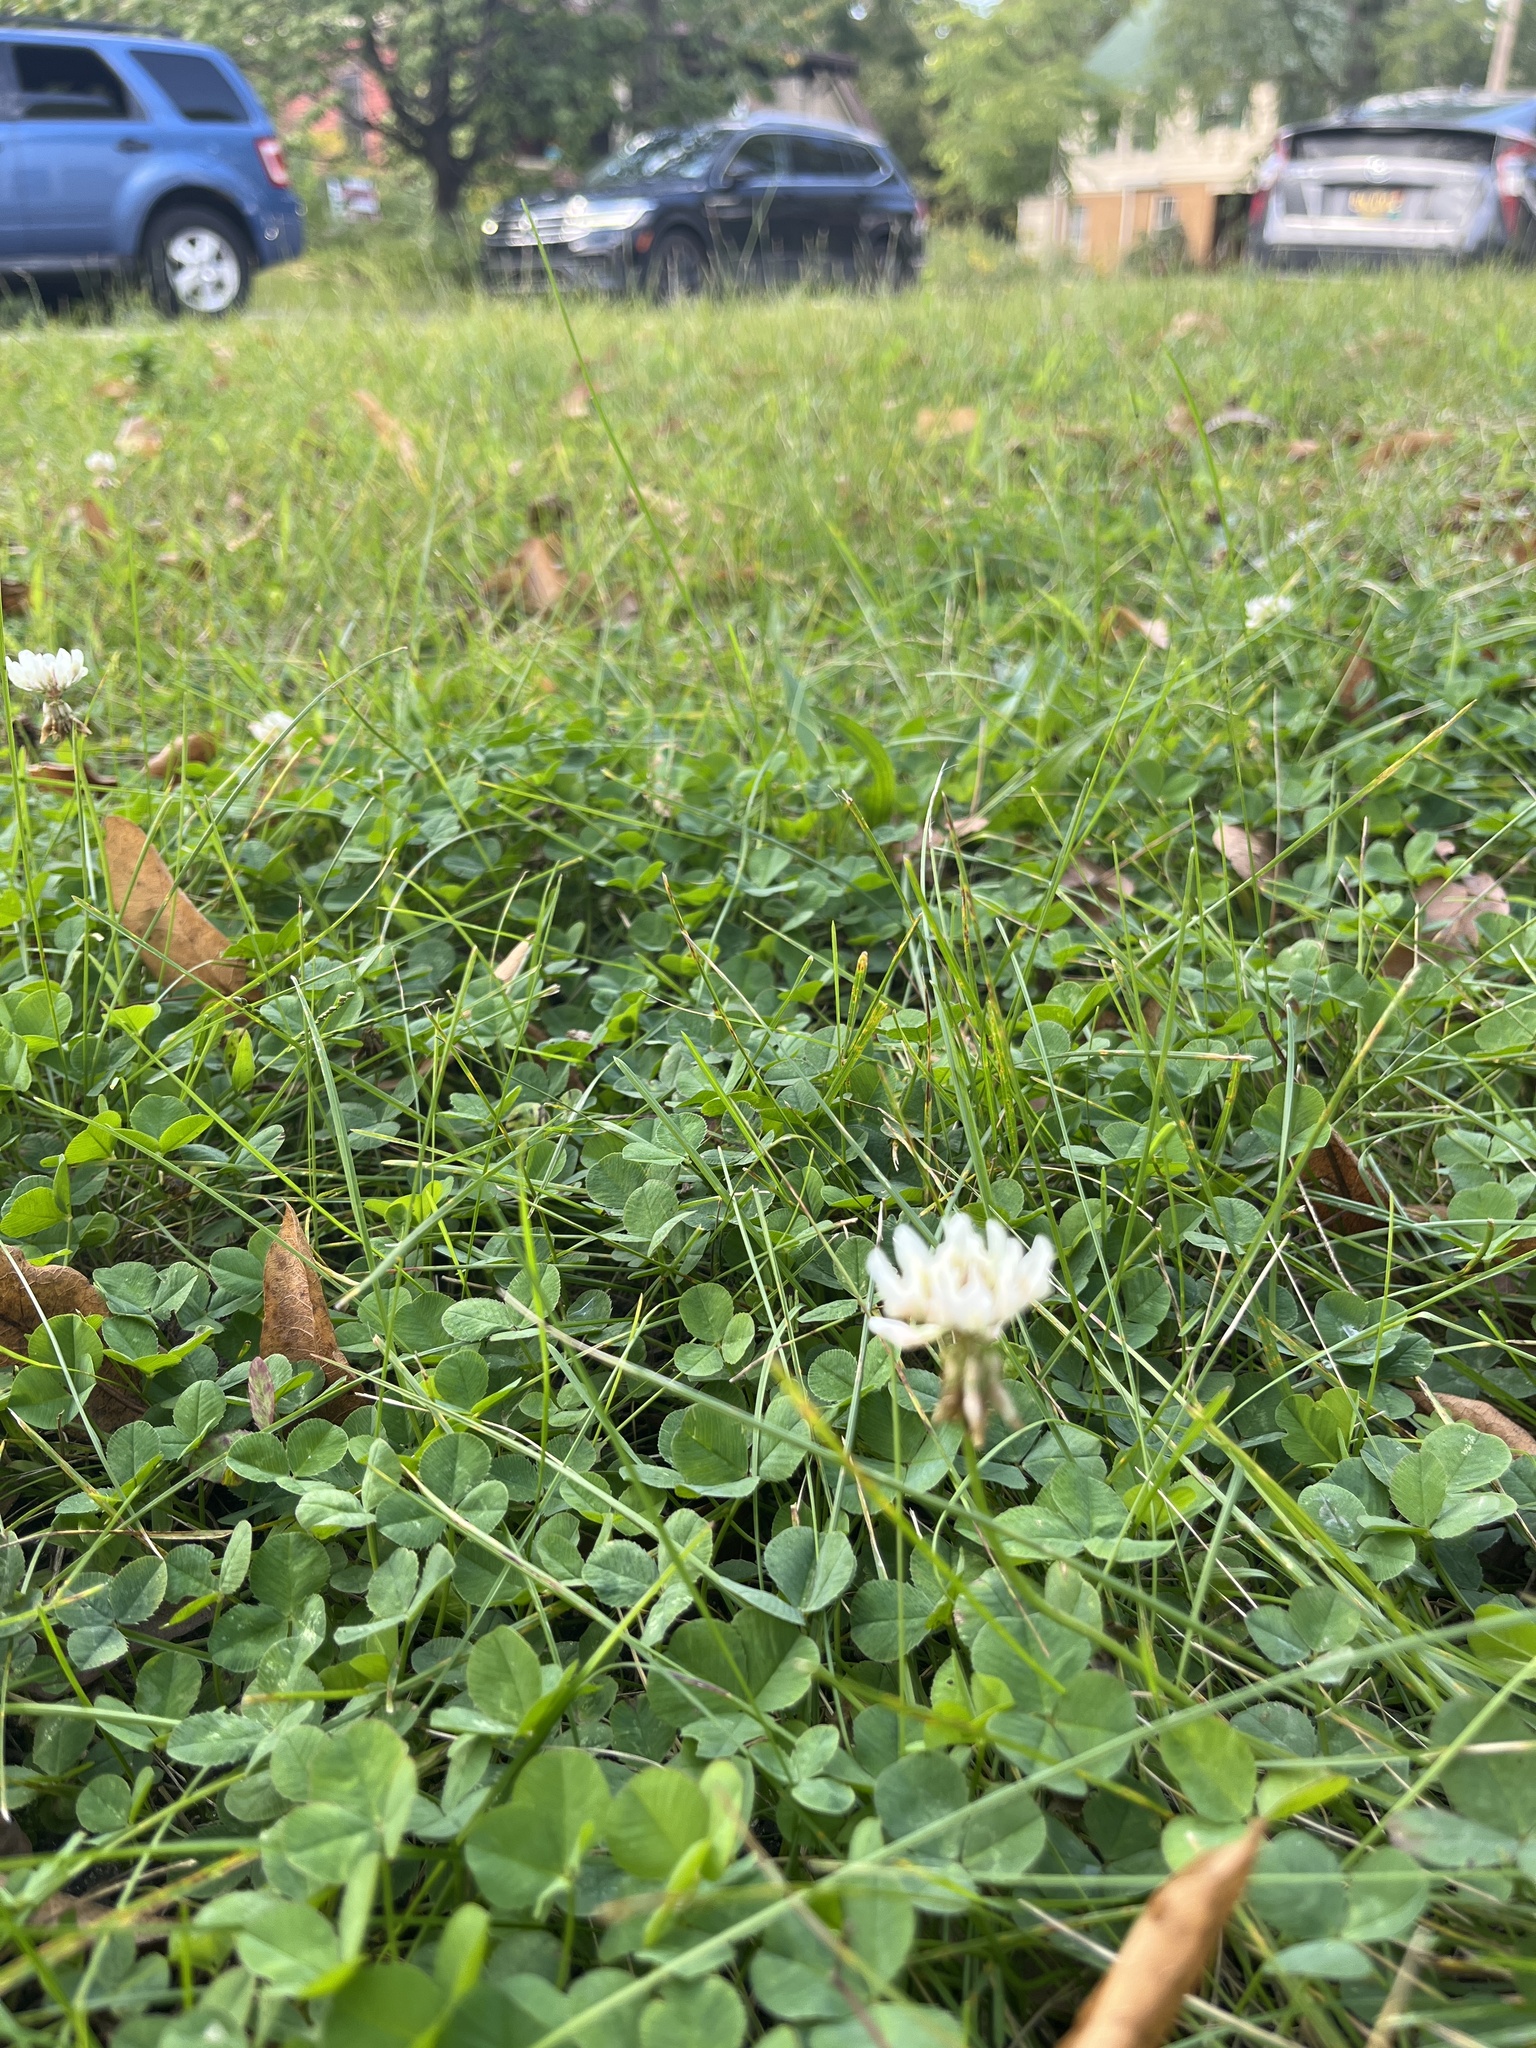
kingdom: Plantae
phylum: Tracheophyta
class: Magnoliopsida
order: Fabales
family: Fabaceae
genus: Trifolium
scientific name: Trifolium repens
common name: White clover
